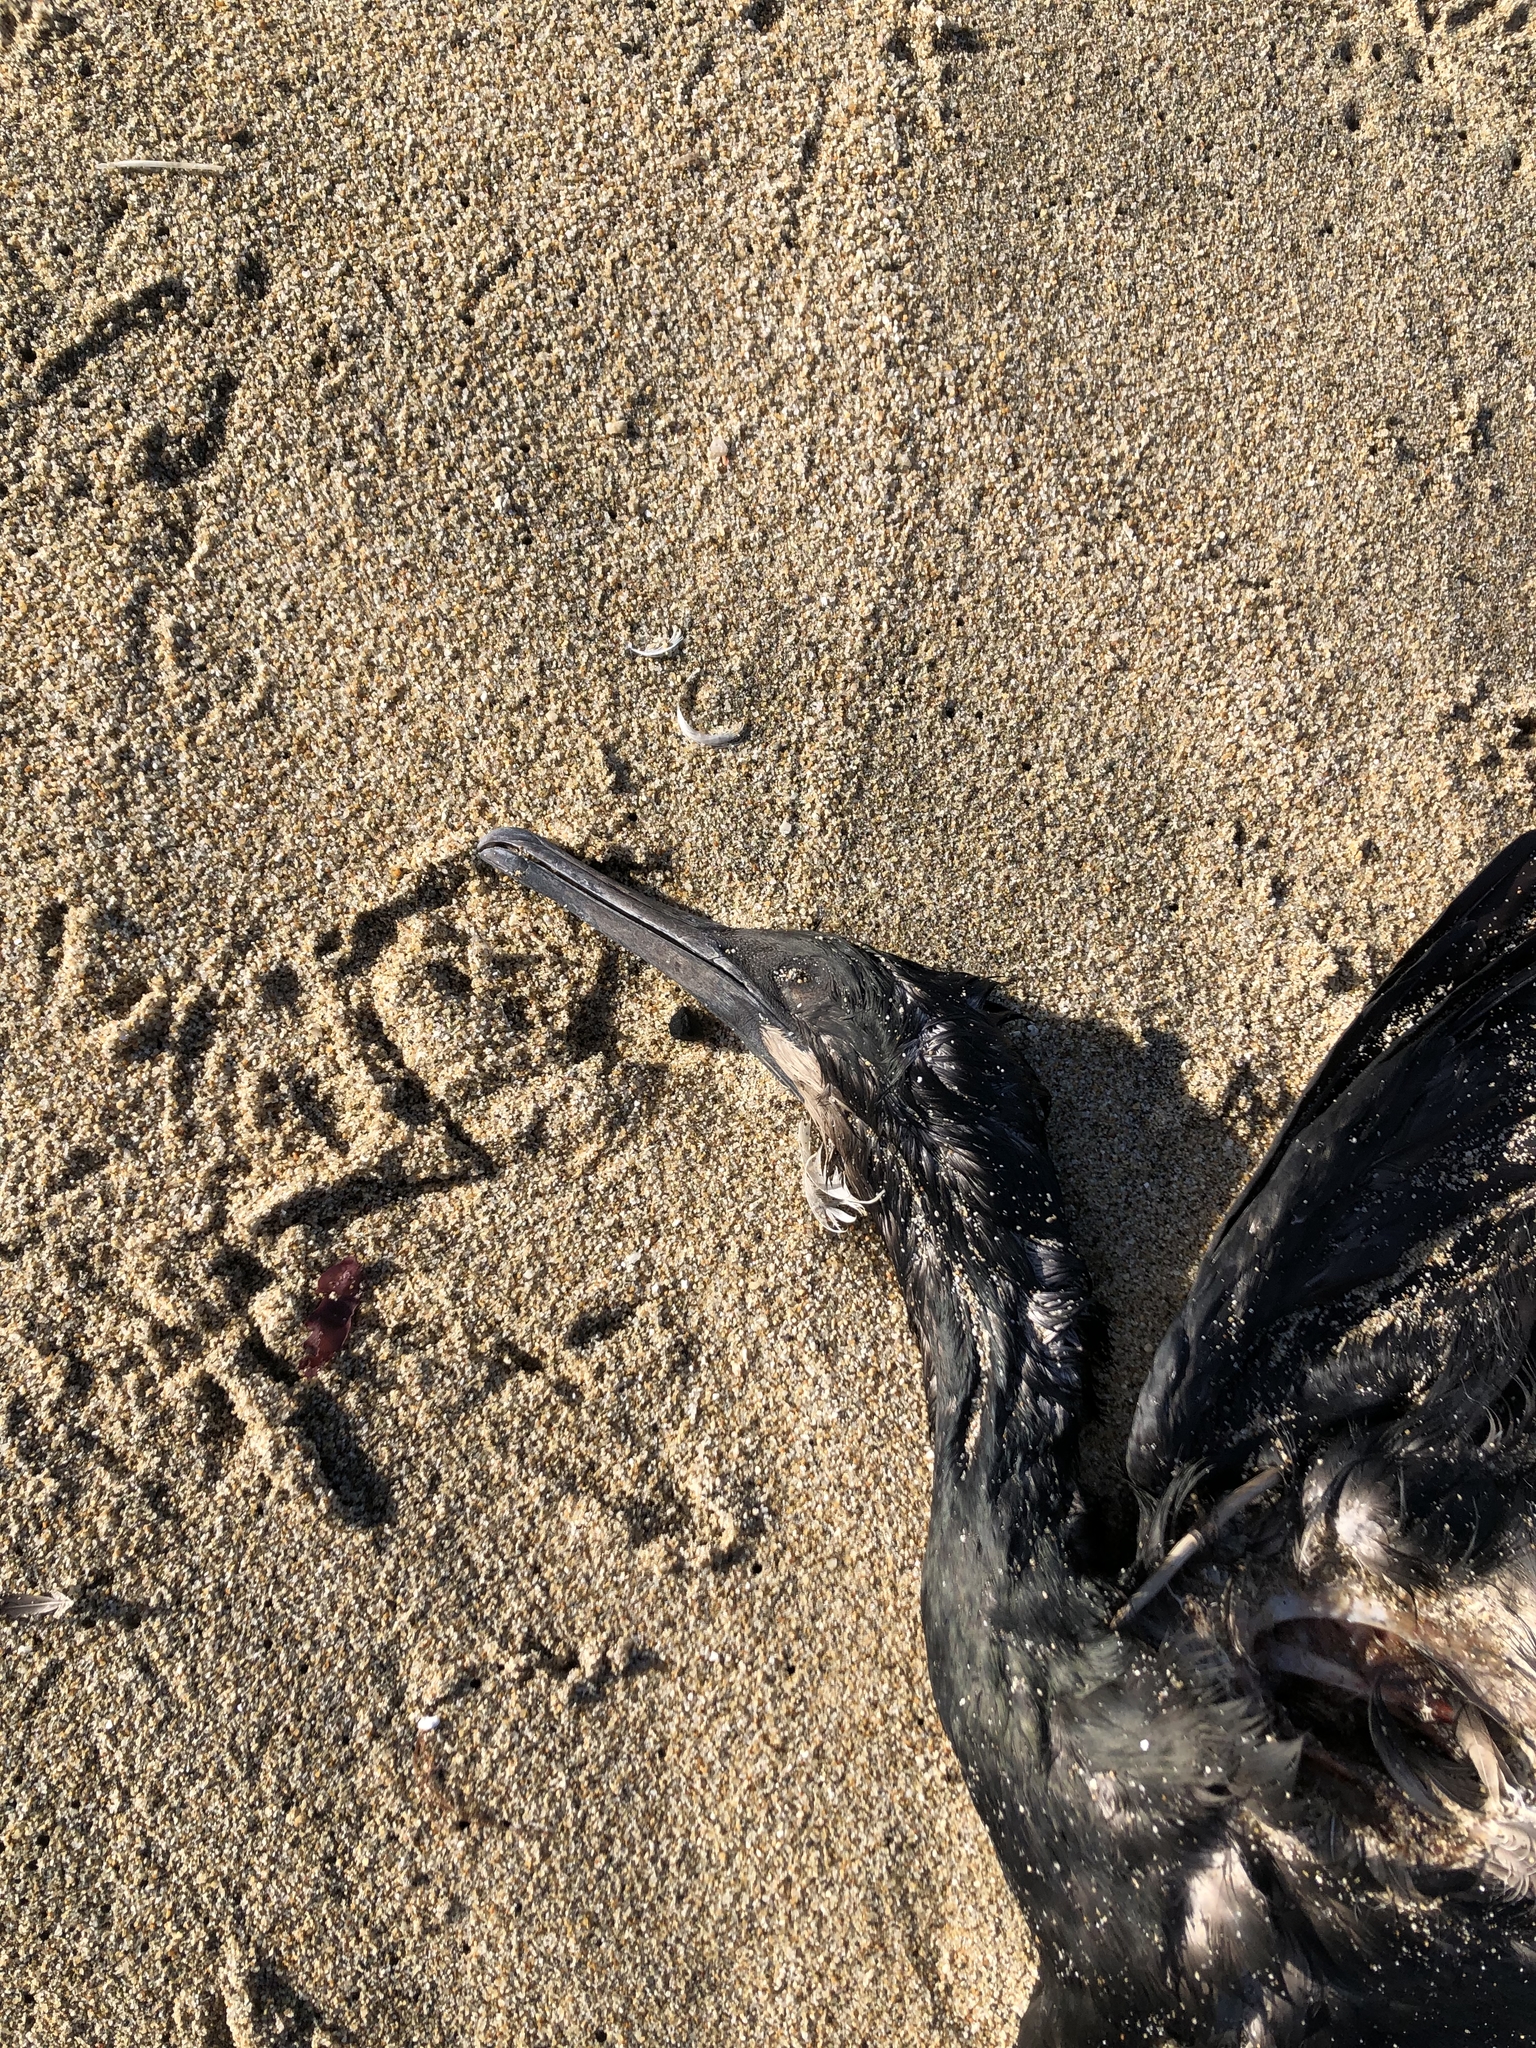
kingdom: Animalia
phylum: Chordata
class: Aves
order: Suliformes
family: Phalacrocoracidae
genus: Urile
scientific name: Urile penicillatus
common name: Brandt's cormorant
